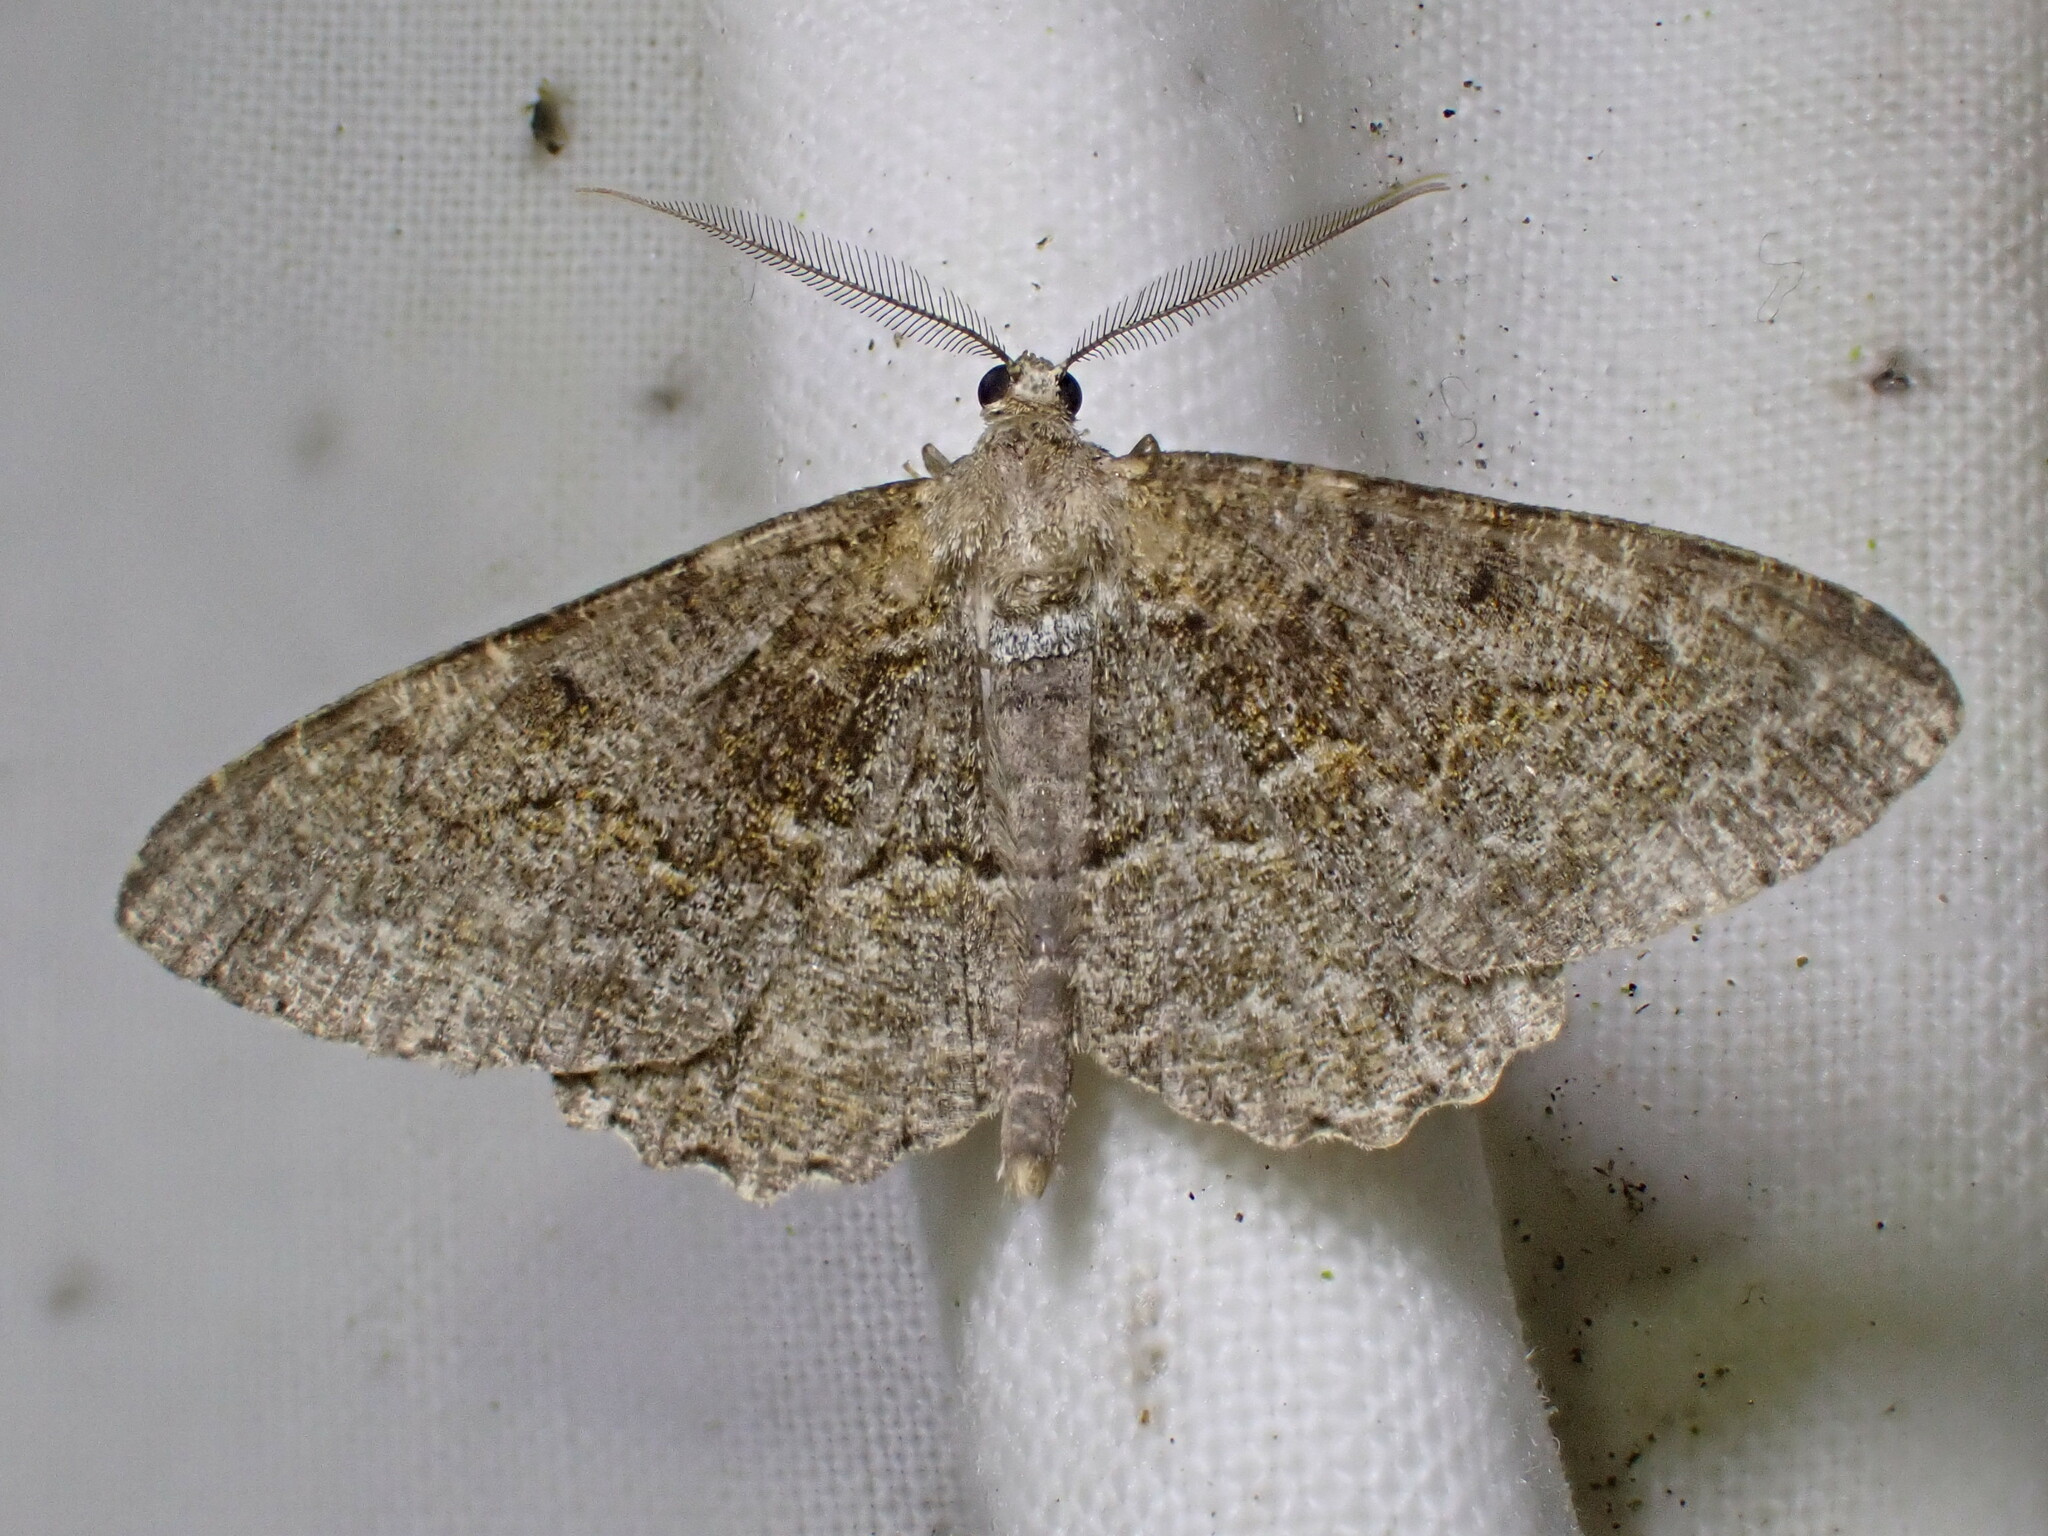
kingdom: Animalia
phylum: Arthropoda
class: Insecta
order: Lepidoptera
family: Geometridae
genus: Alcis
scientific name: Alcis repandata
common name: Mottled beauty
